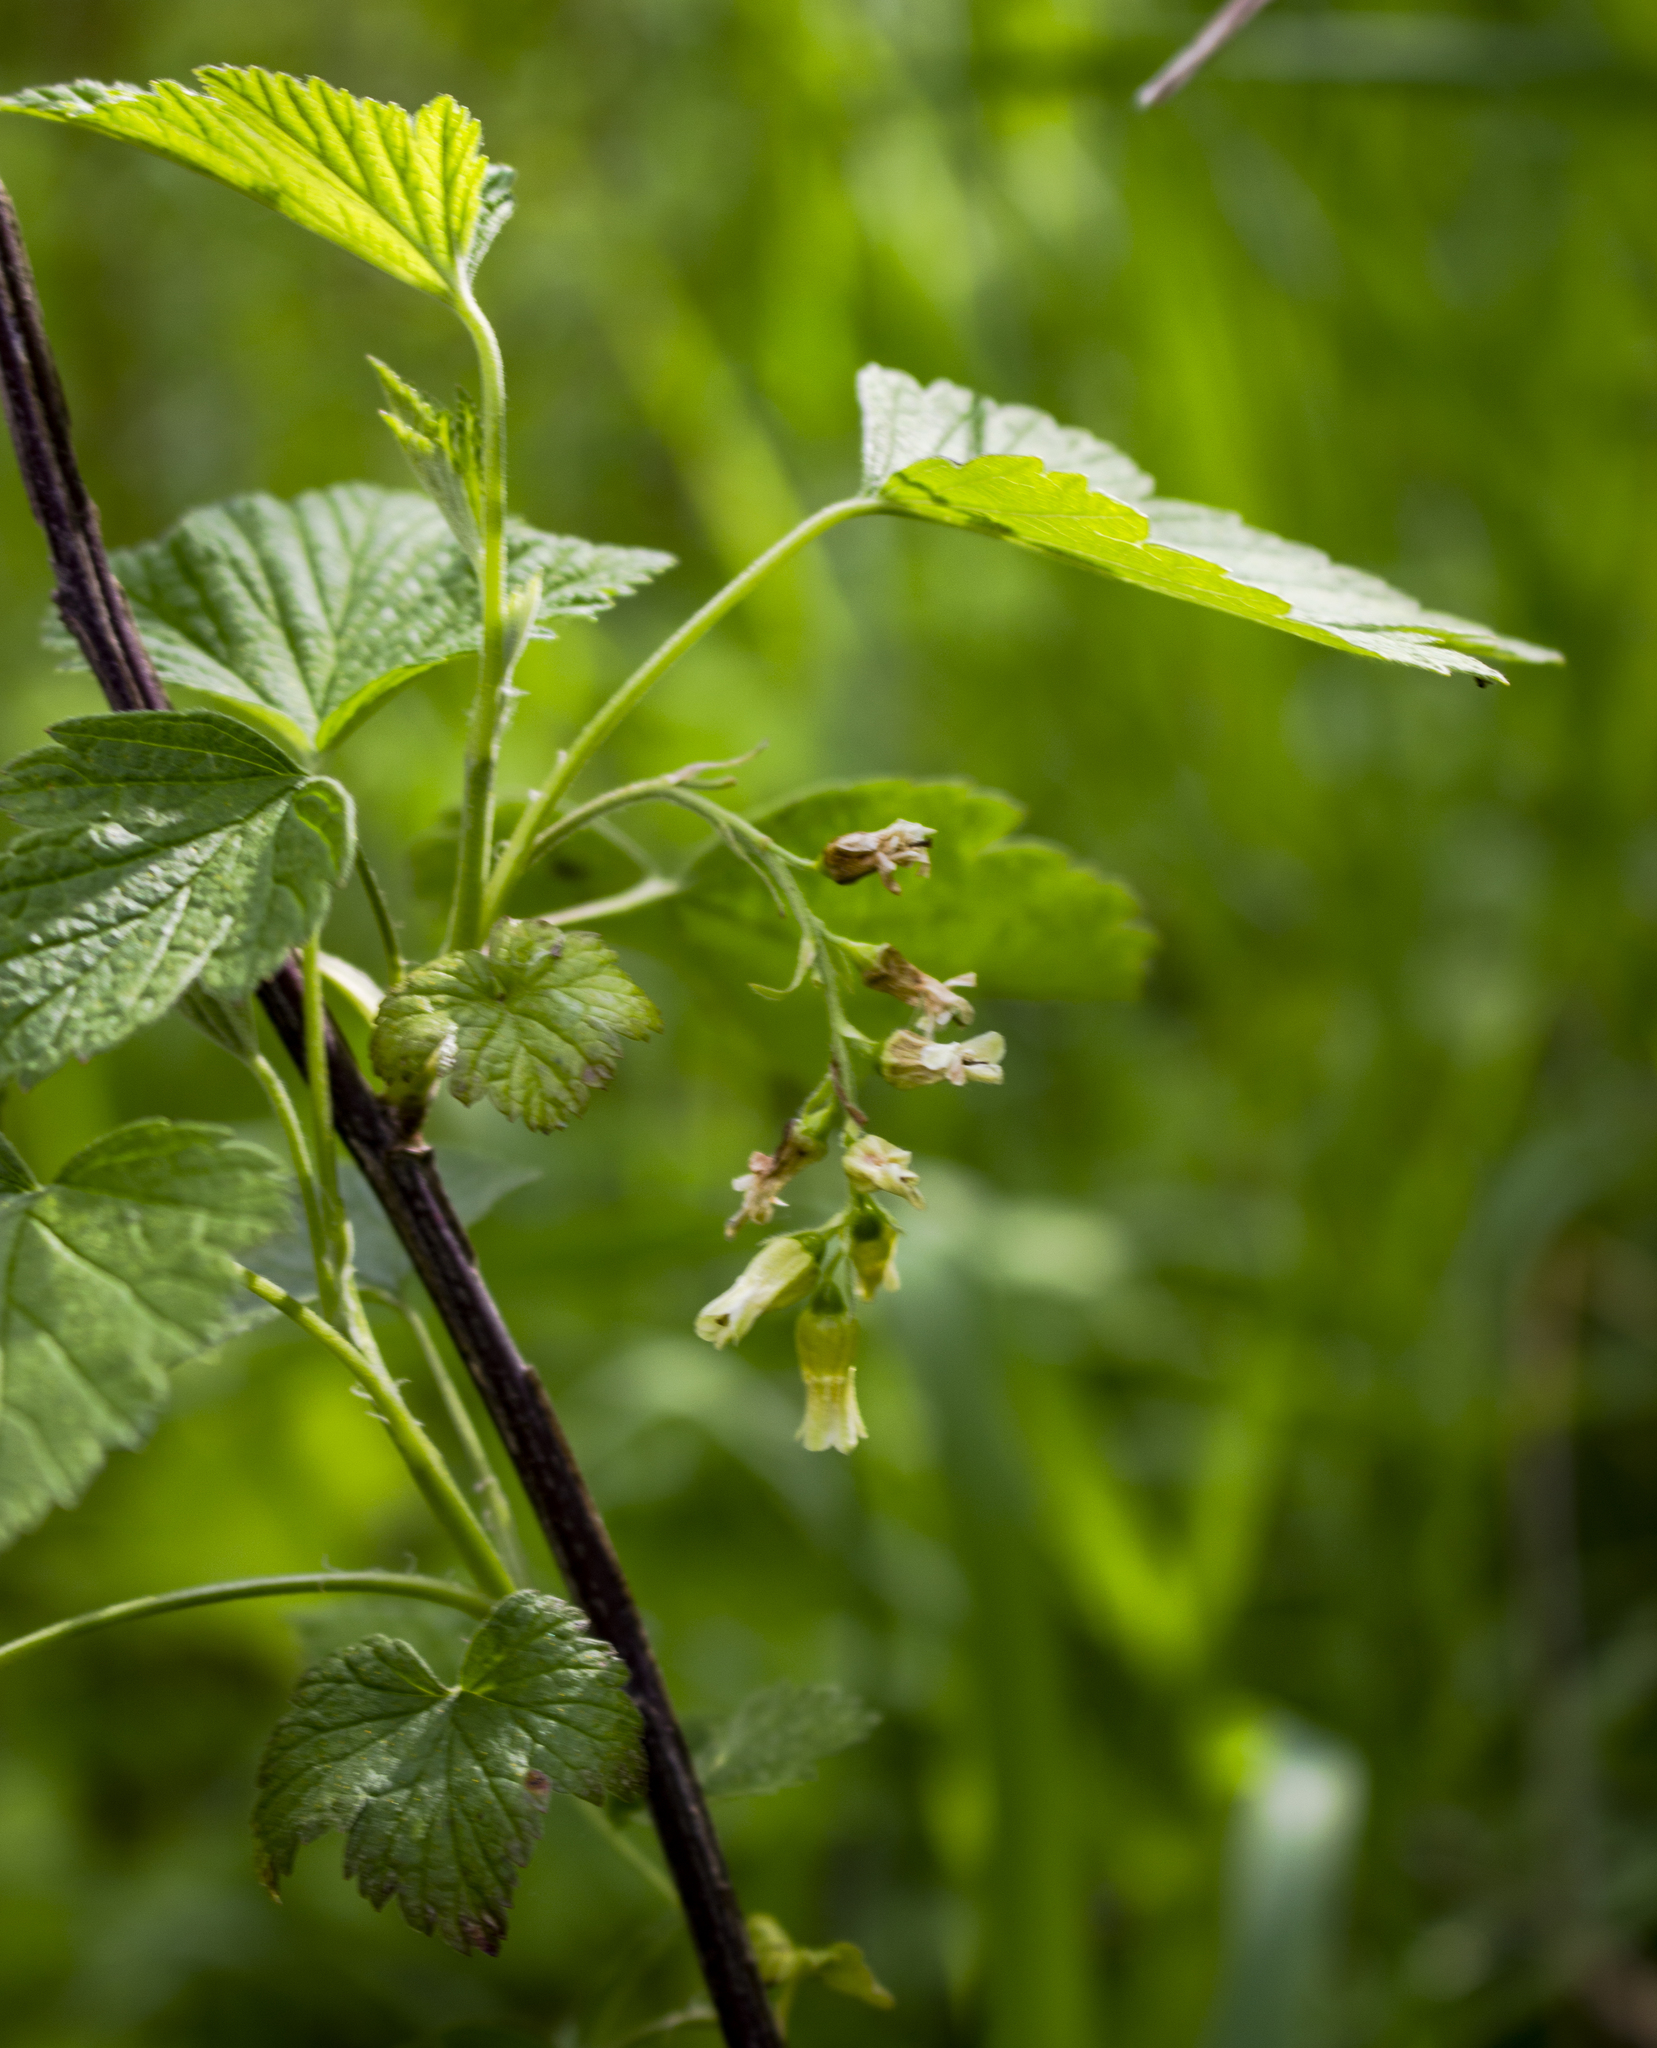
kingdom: Plantae
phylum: Tracheophyta
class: Magnoliopsida
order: Saxifragales
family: Grossulariaceae
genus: Ribes
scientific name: Ribes americanum
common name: American black currant
